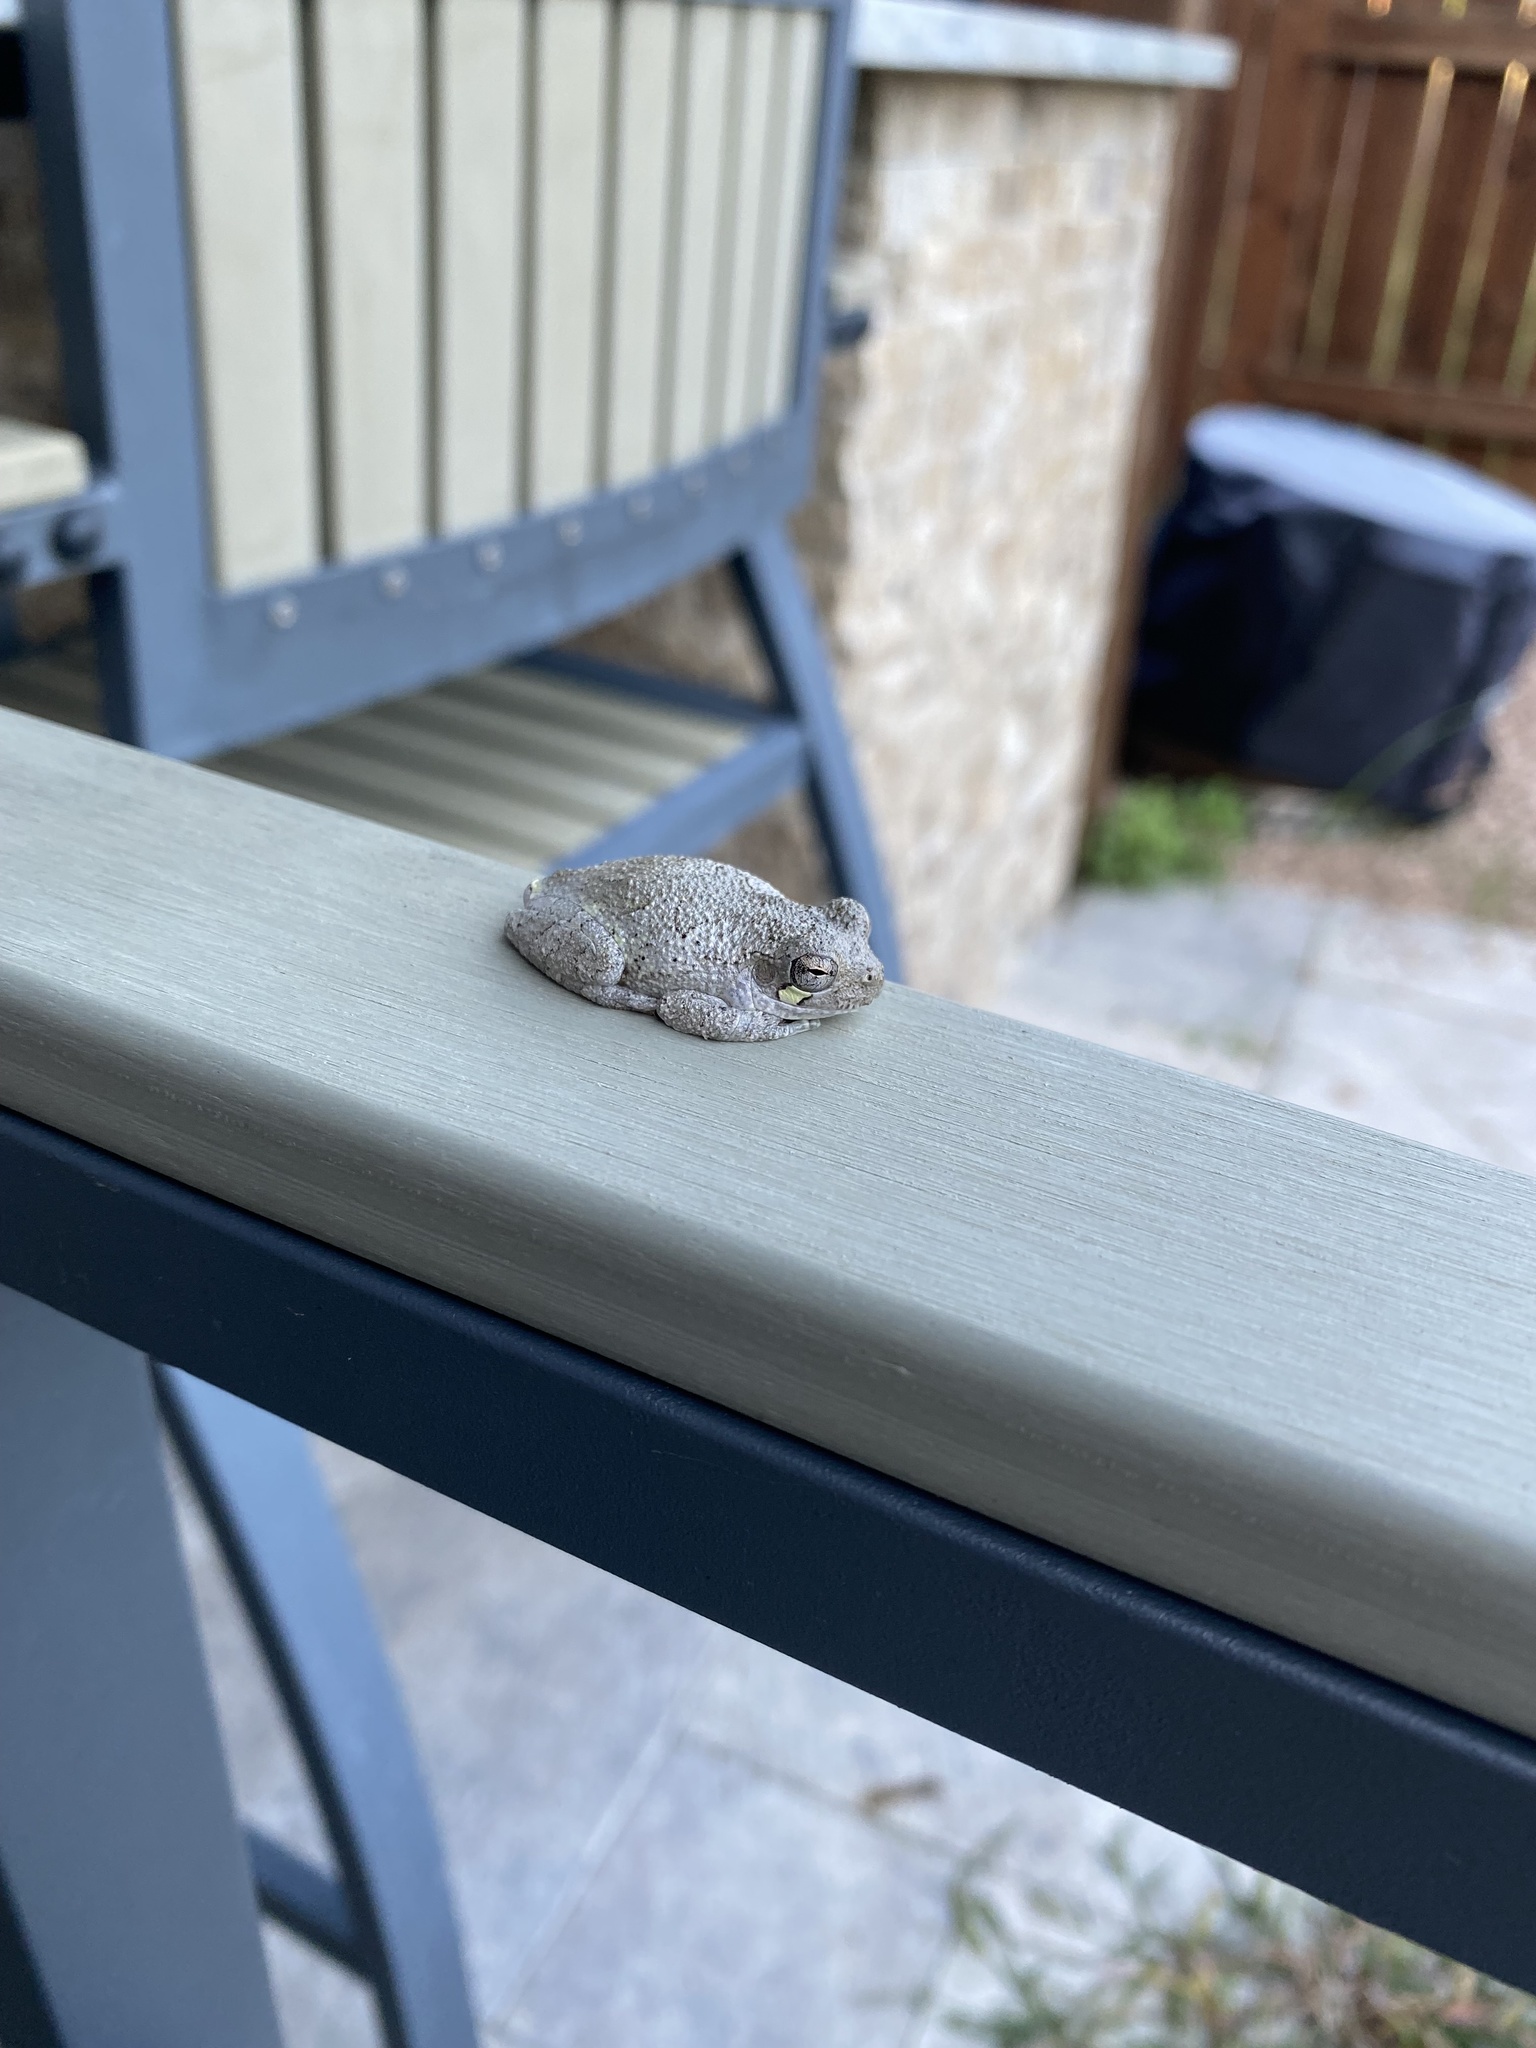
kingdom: Animalia
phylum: Chordata
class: Amphibia
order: Anura
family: Hylidae
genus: Dryophytes
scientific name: Dryophytes versicolor
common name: Gray treefrog
